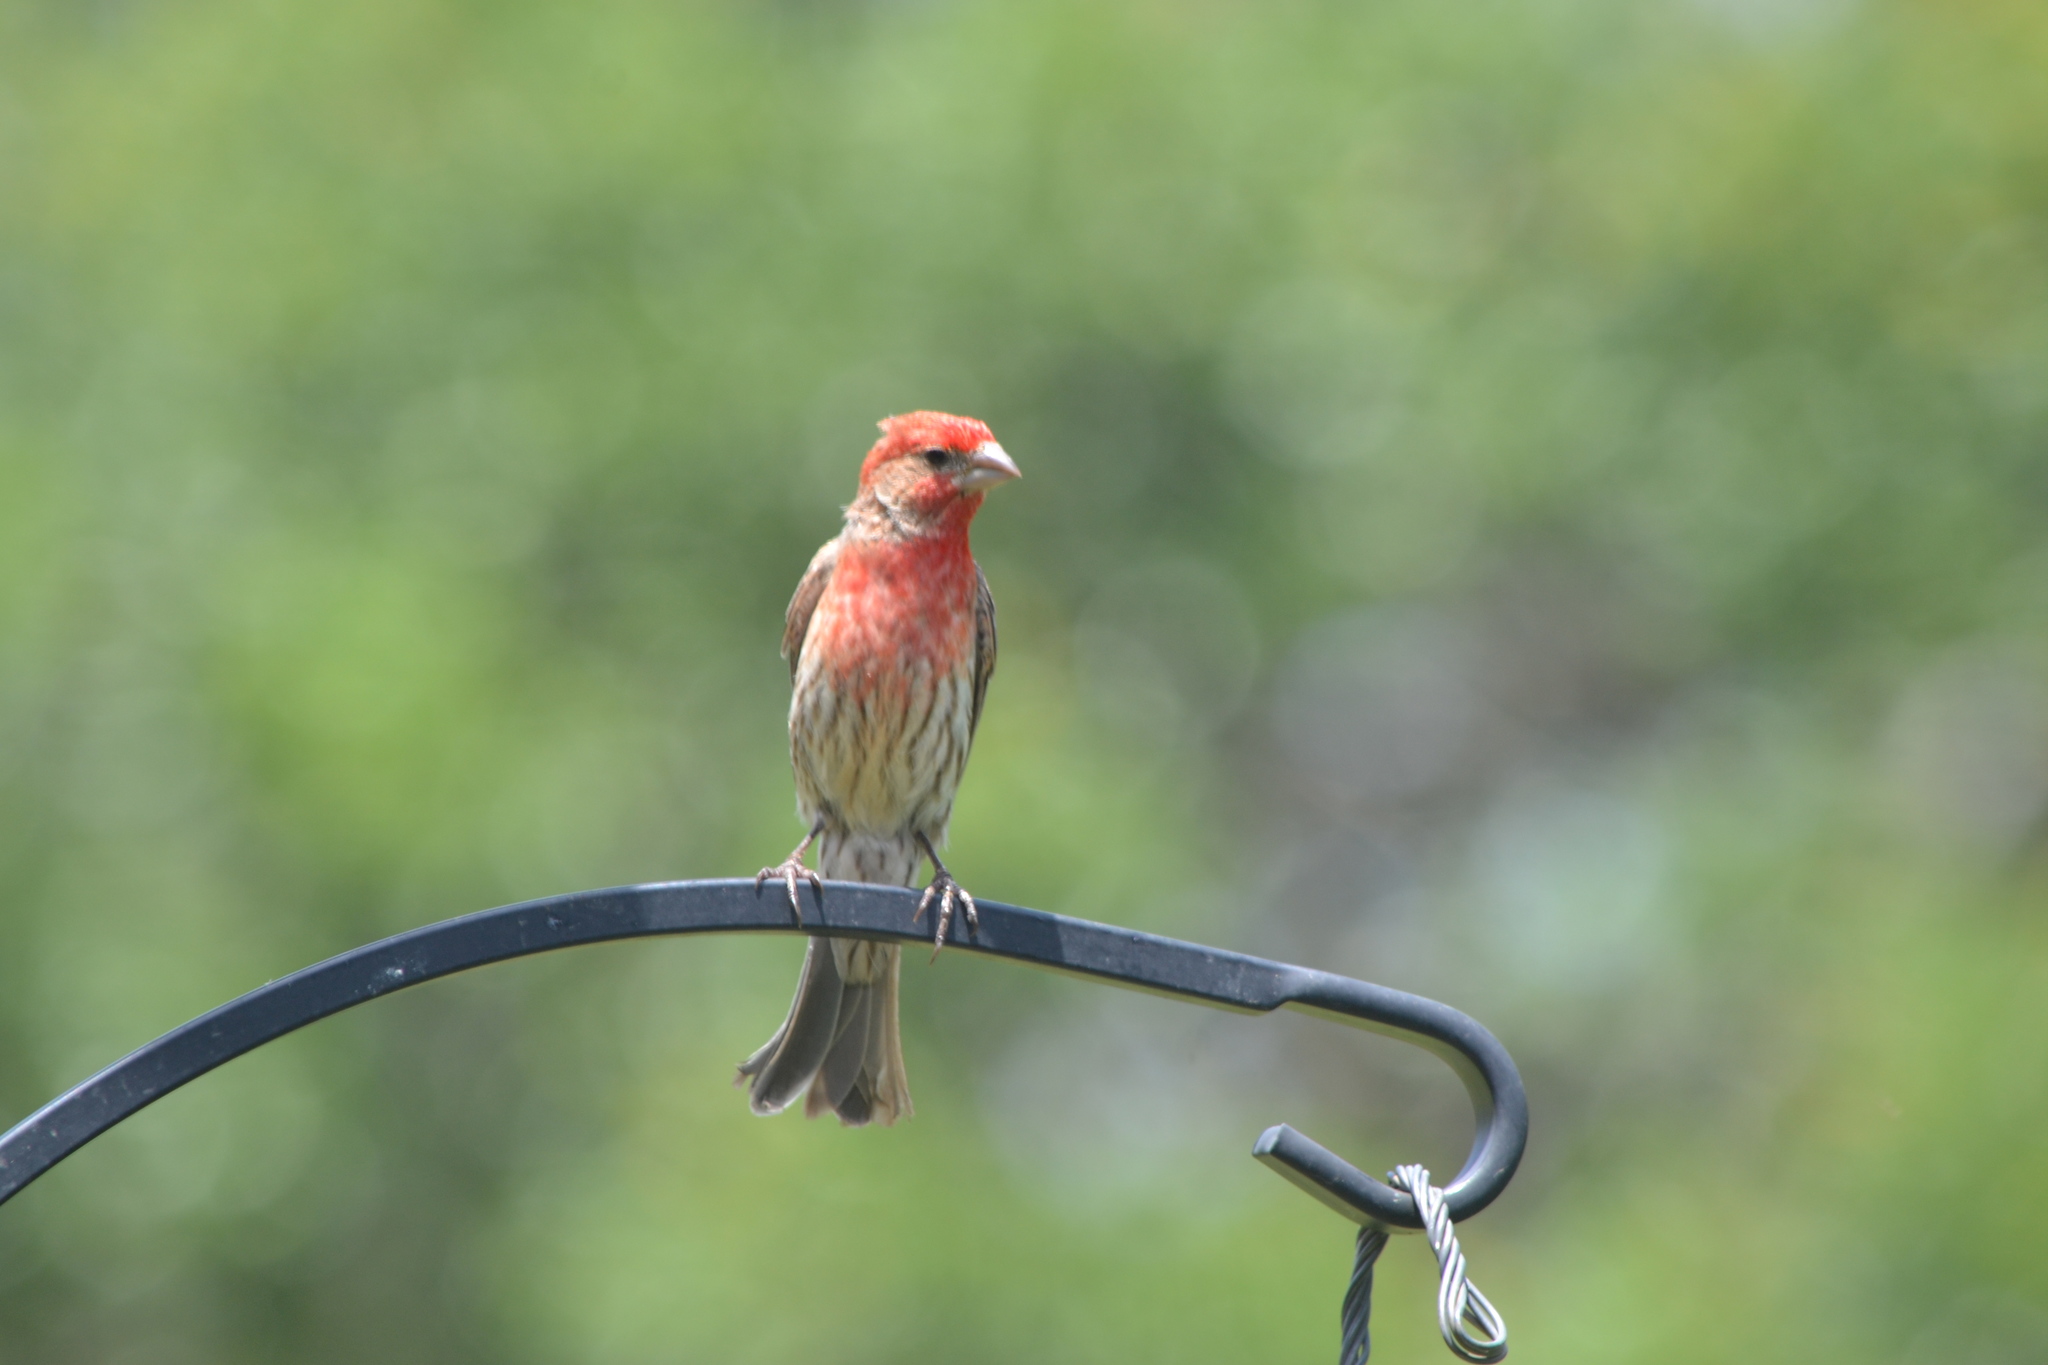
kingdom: Animalia
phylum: Chordata
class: Aves
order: Passeriformes
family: Fringillidae
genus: Haemorhous
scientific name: Haemorhous mexicanus
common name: House finch
